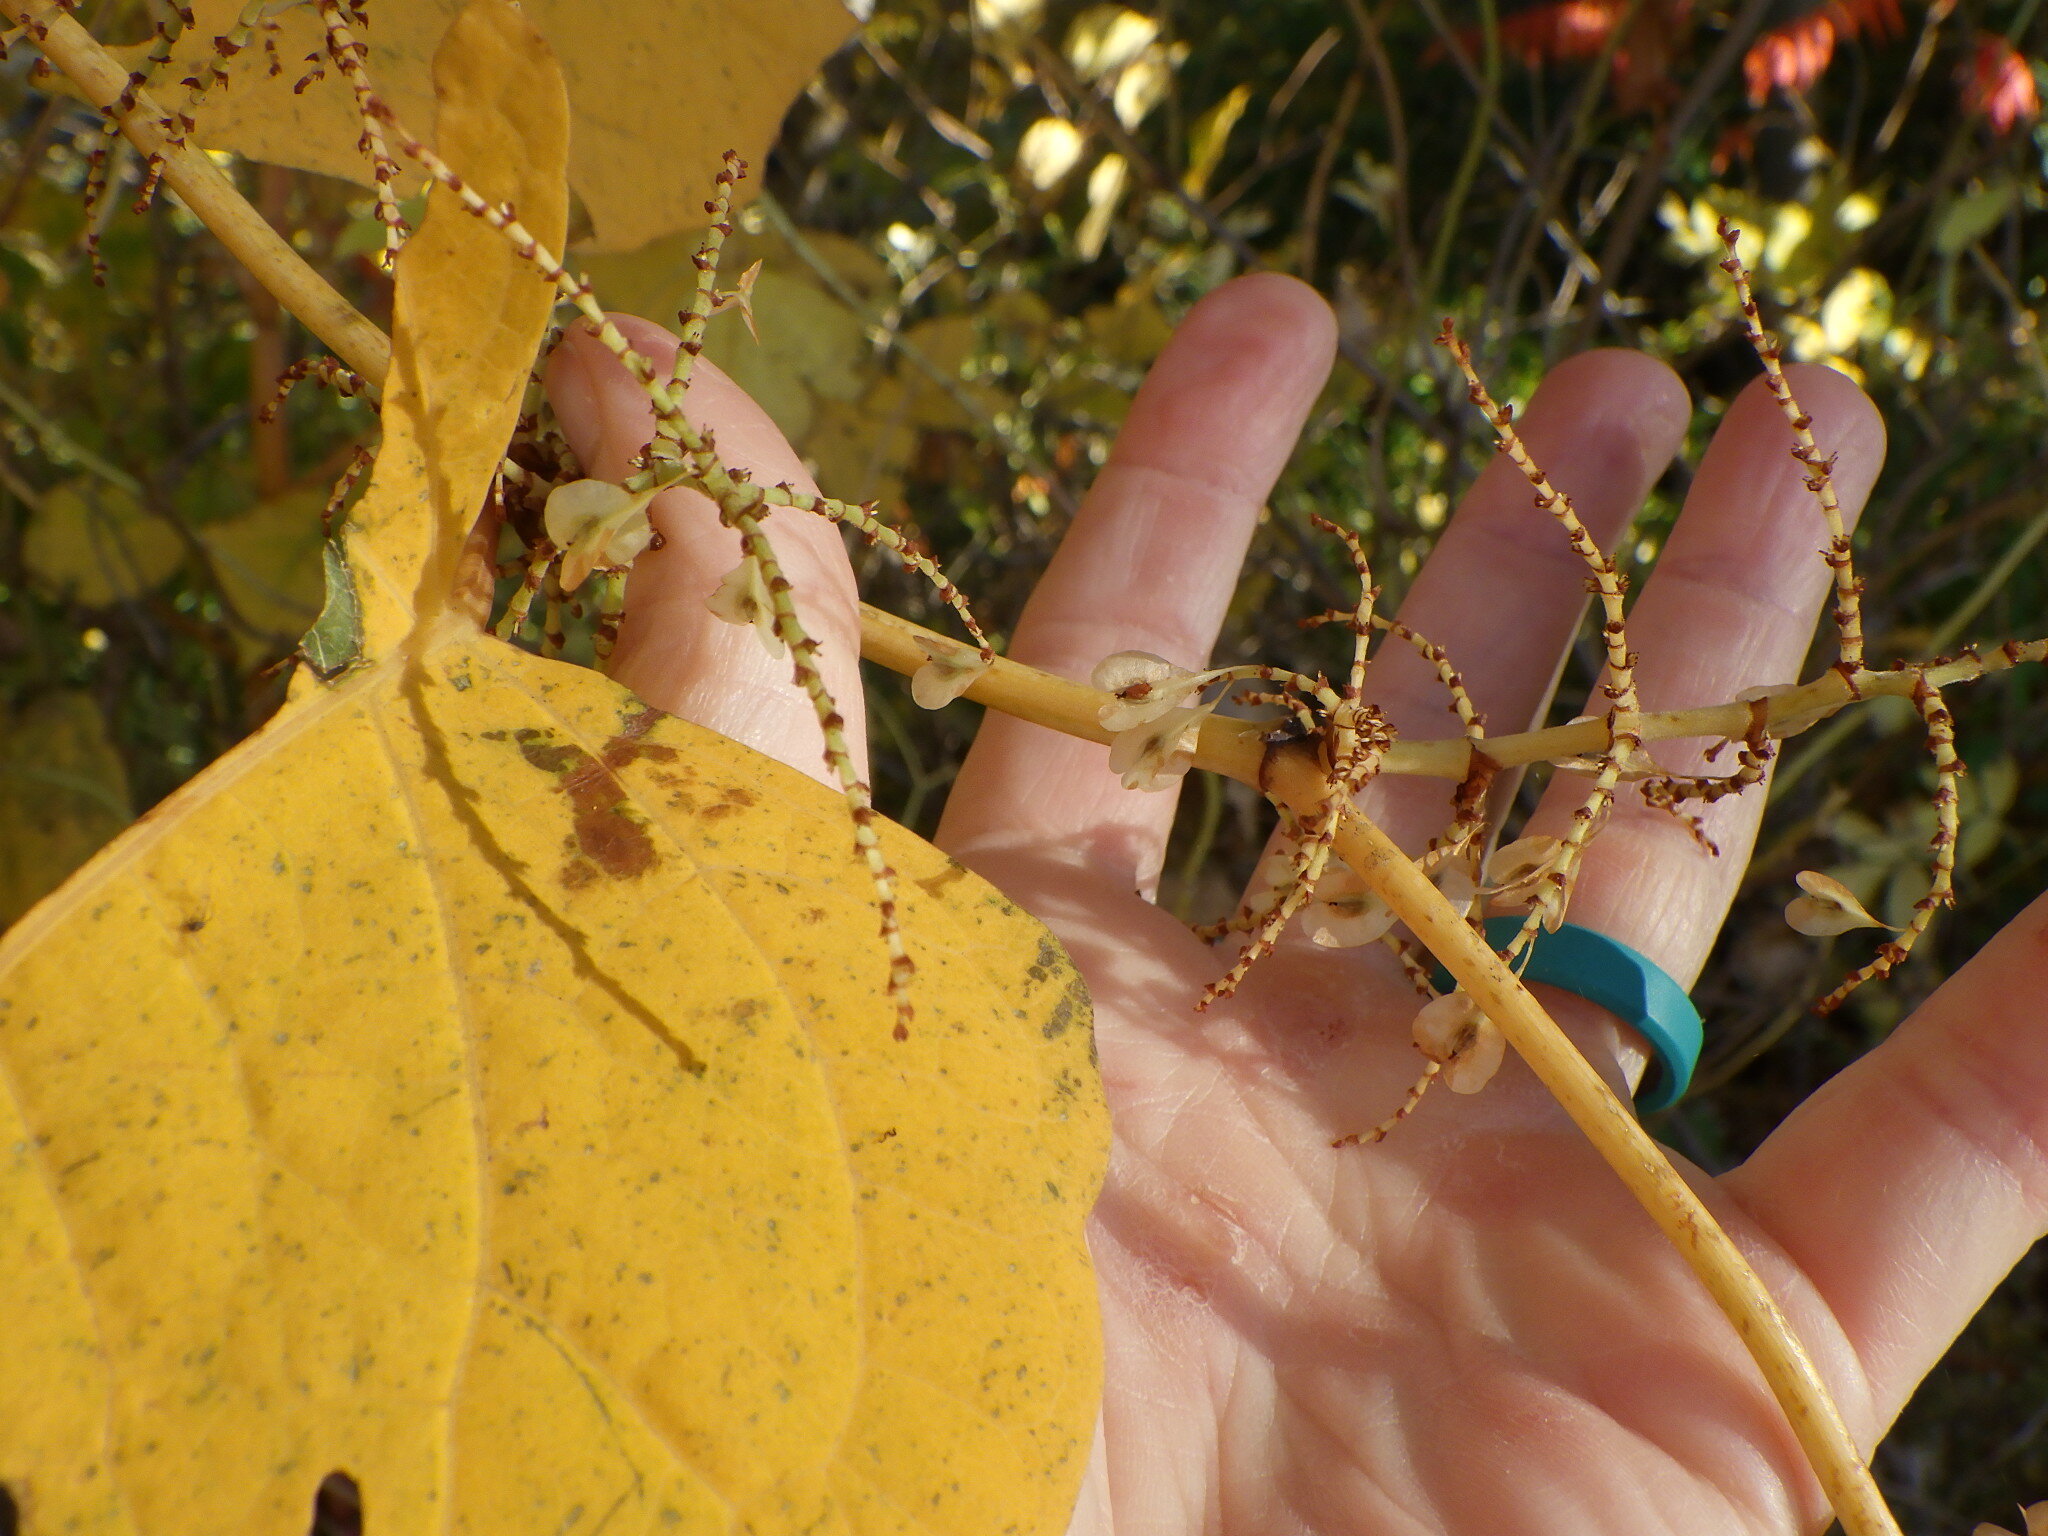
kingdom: Plantae
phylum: Tracheophyta
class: Magnoliopsida
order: Caryophyllales
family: Polygonaceae
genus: Reynoutria
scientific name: Reynoutria japonica
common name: Japanese knotweed
